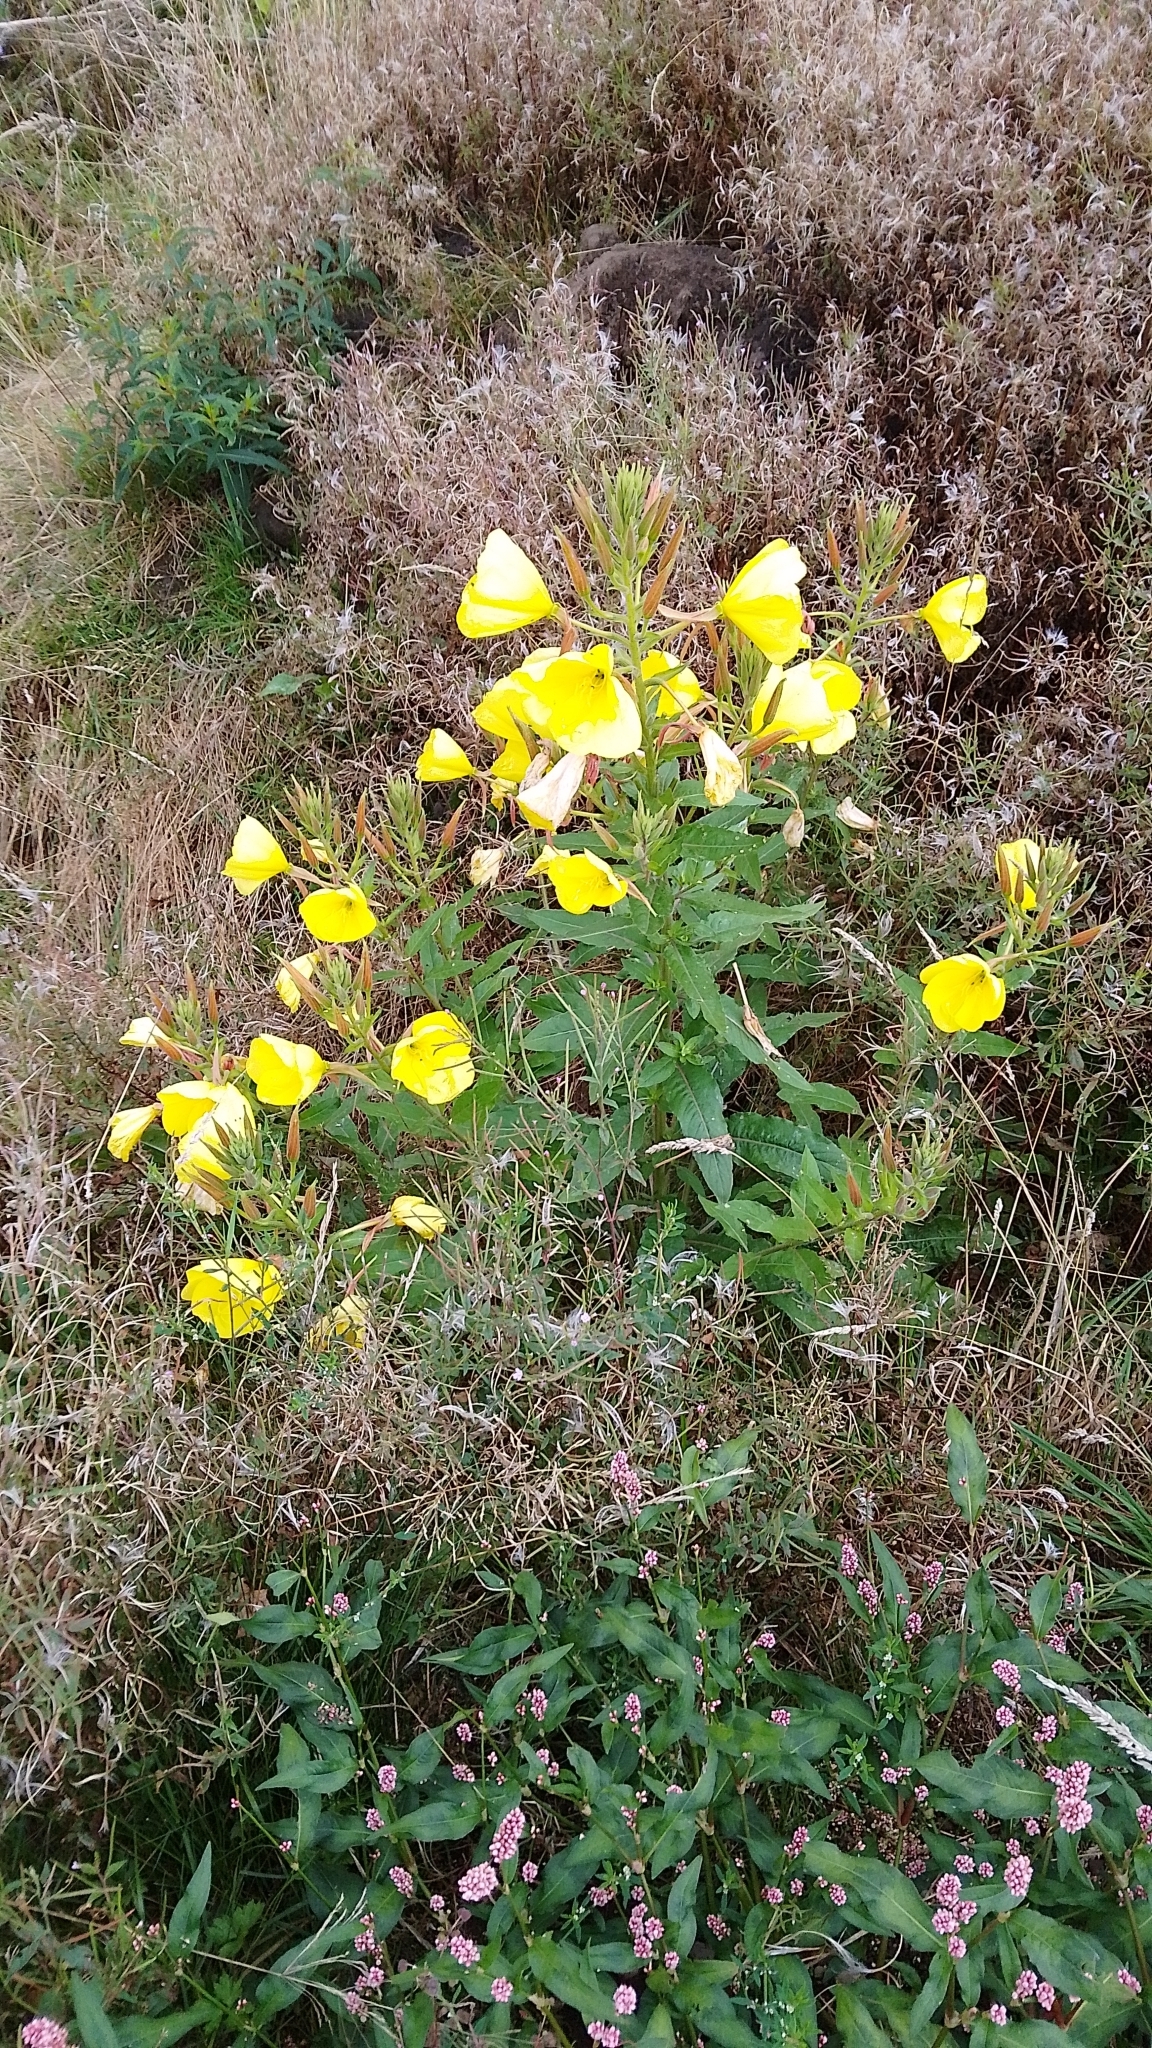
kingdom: Plantae
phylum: Tracheophyta
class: Magnoliopsida
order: Myrtales
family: Onagraceae
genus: Oenothera
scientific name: Oenothera glazioviana
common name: Large-flowered evening-primrose
